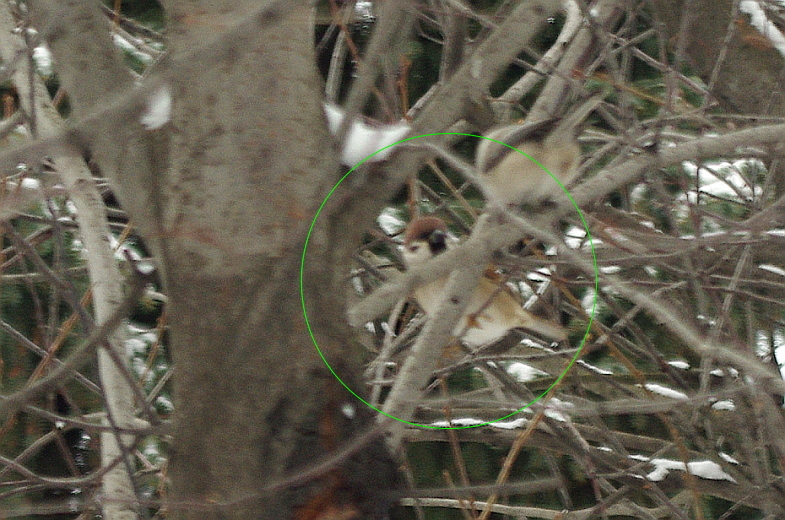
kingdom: Animalia
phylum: Chordata
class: Aves
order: Passeriformes
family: Passeridae
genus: Passer
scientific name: Passer montanus
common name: Eurasian tree sparrow
